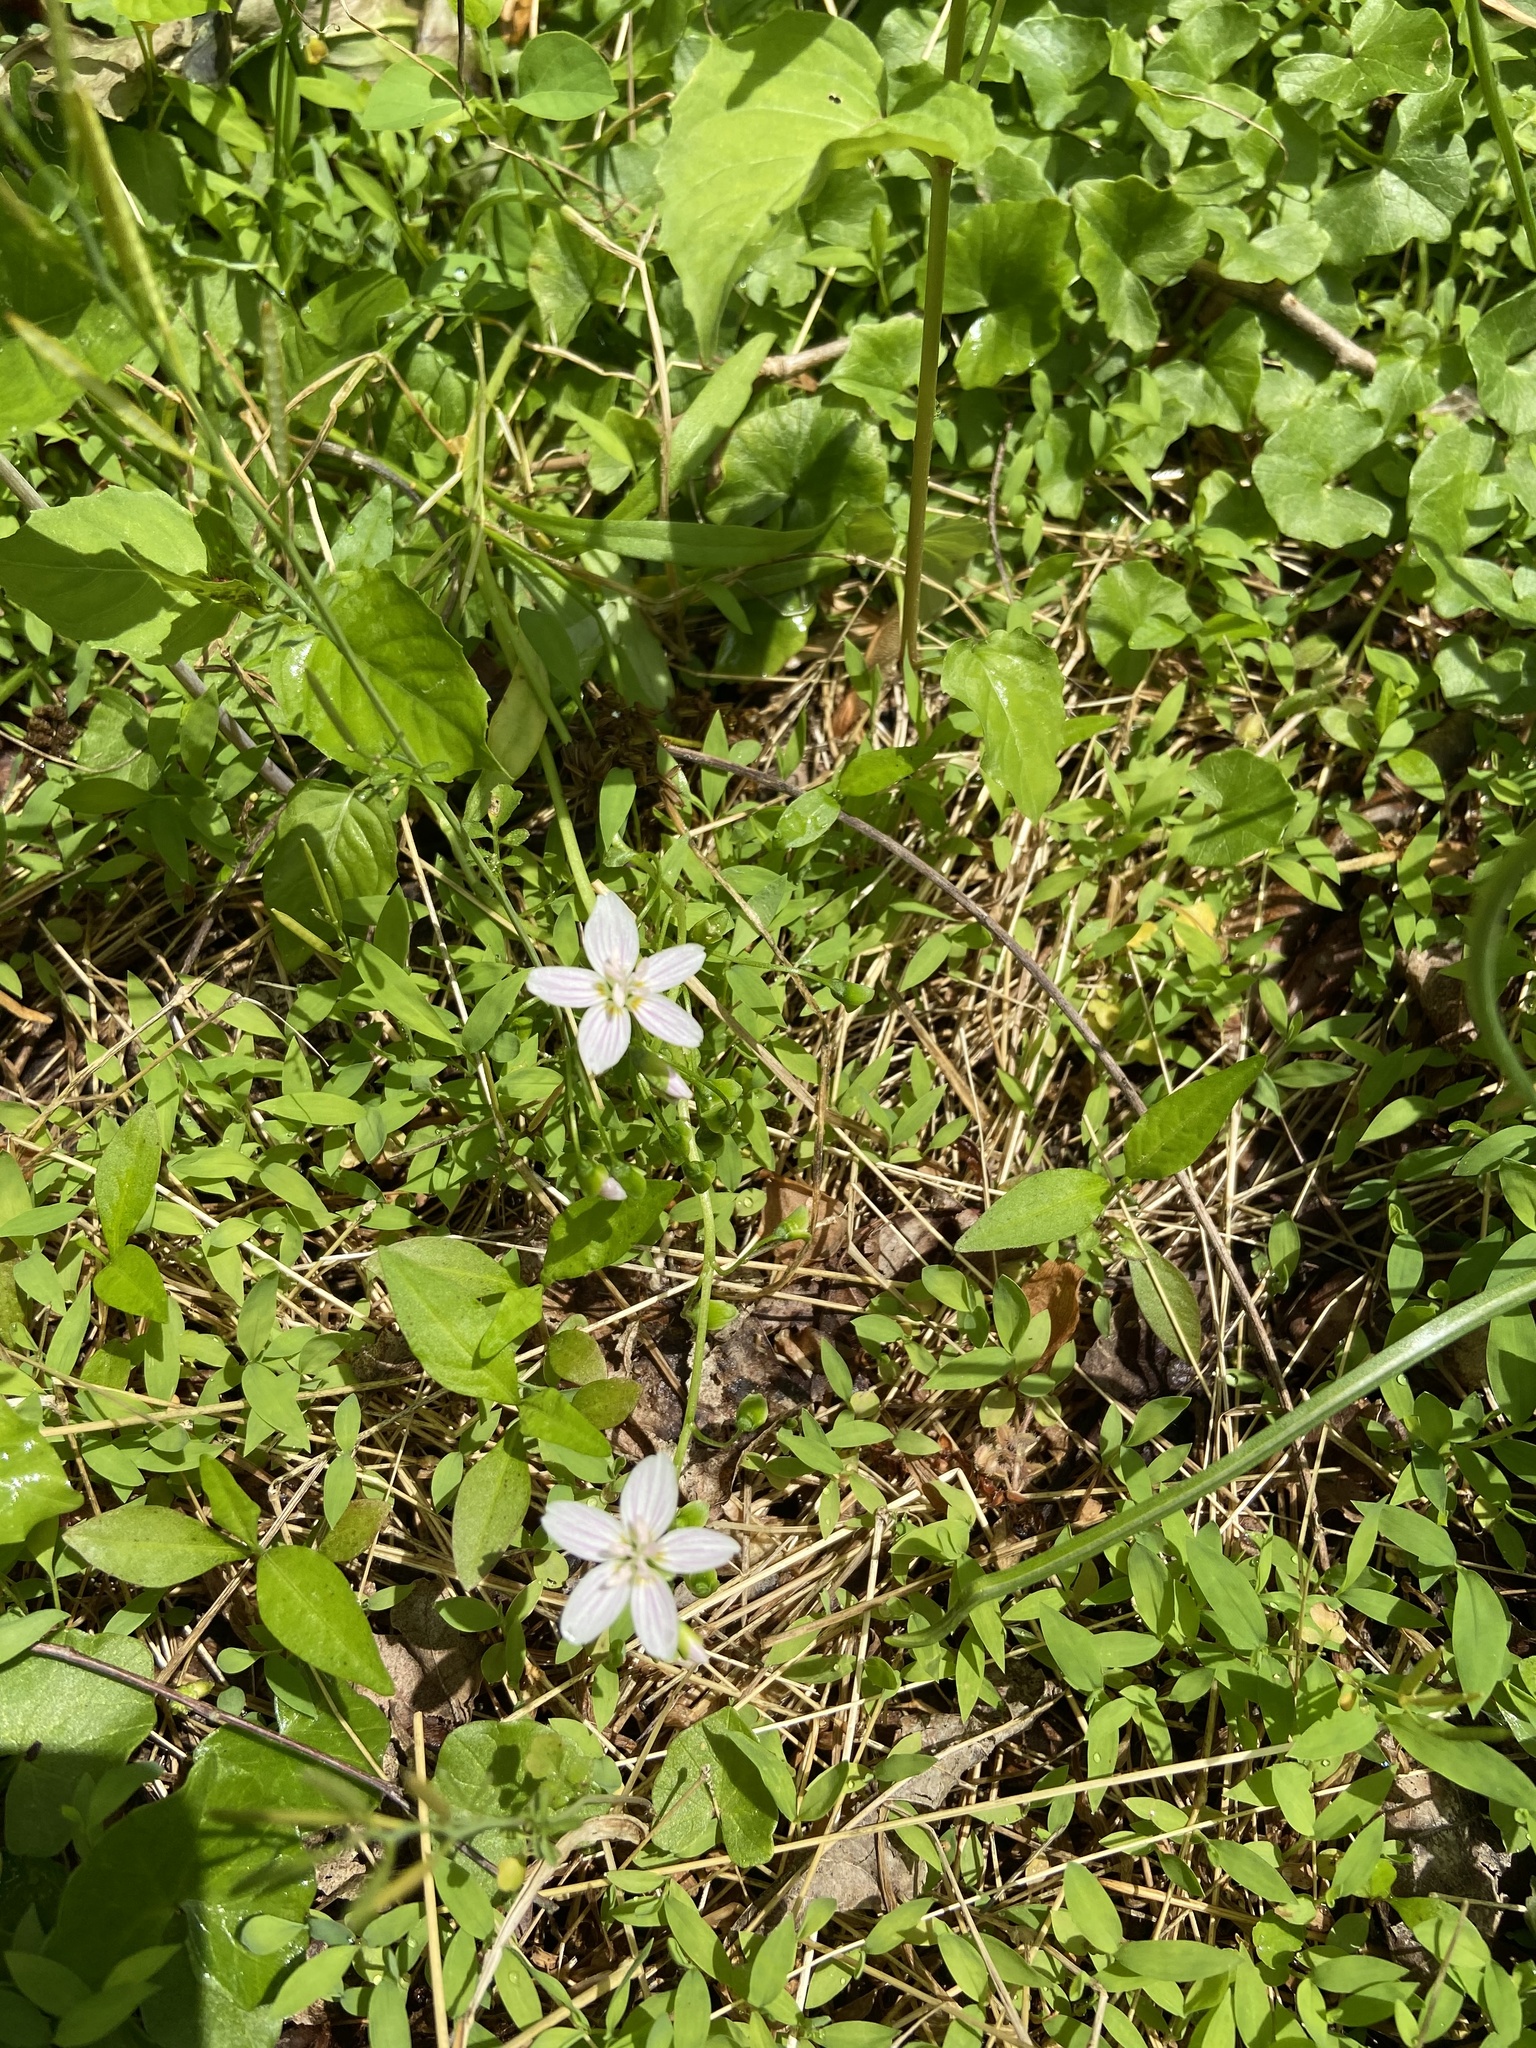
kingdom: Plantae
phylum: Tracheophyta
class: Magnoliopsida
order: Caryophyllales
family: Montiaceae
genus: Claytonia
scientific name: Claytonia virginica
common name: Virginia springbeauty
